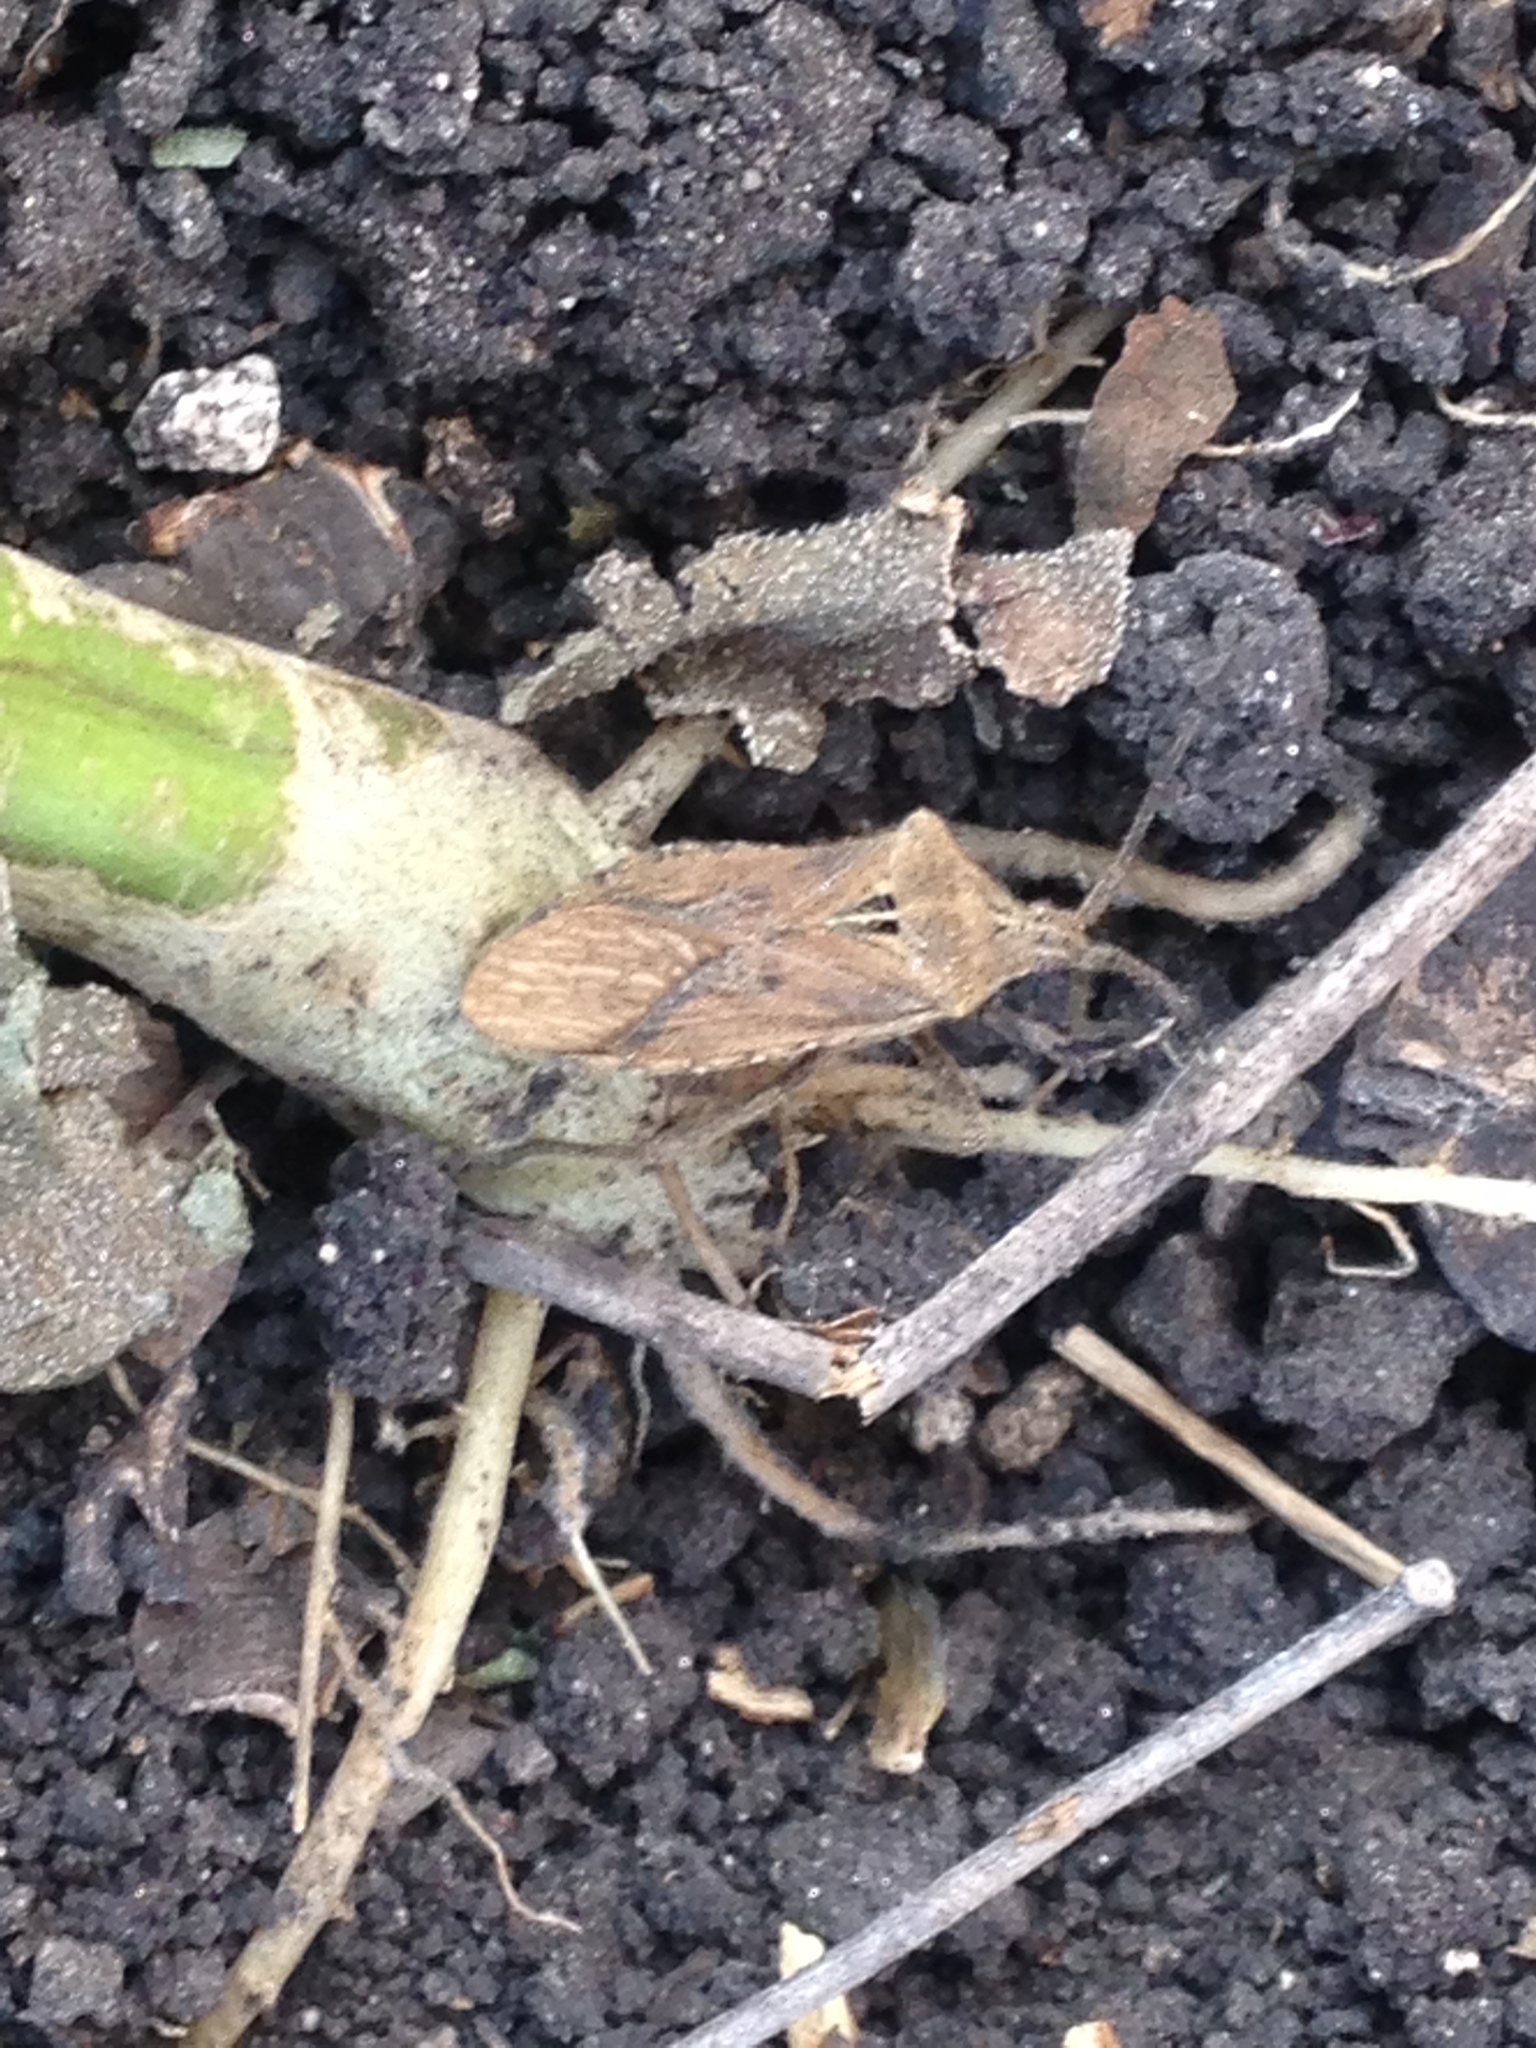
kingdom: Animalia
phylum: Arthropoda
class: Insecta
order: Hemiptera
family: Coreidae
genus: Eubule
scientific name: Eubule spartocerana
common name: Leaf-footed bug
